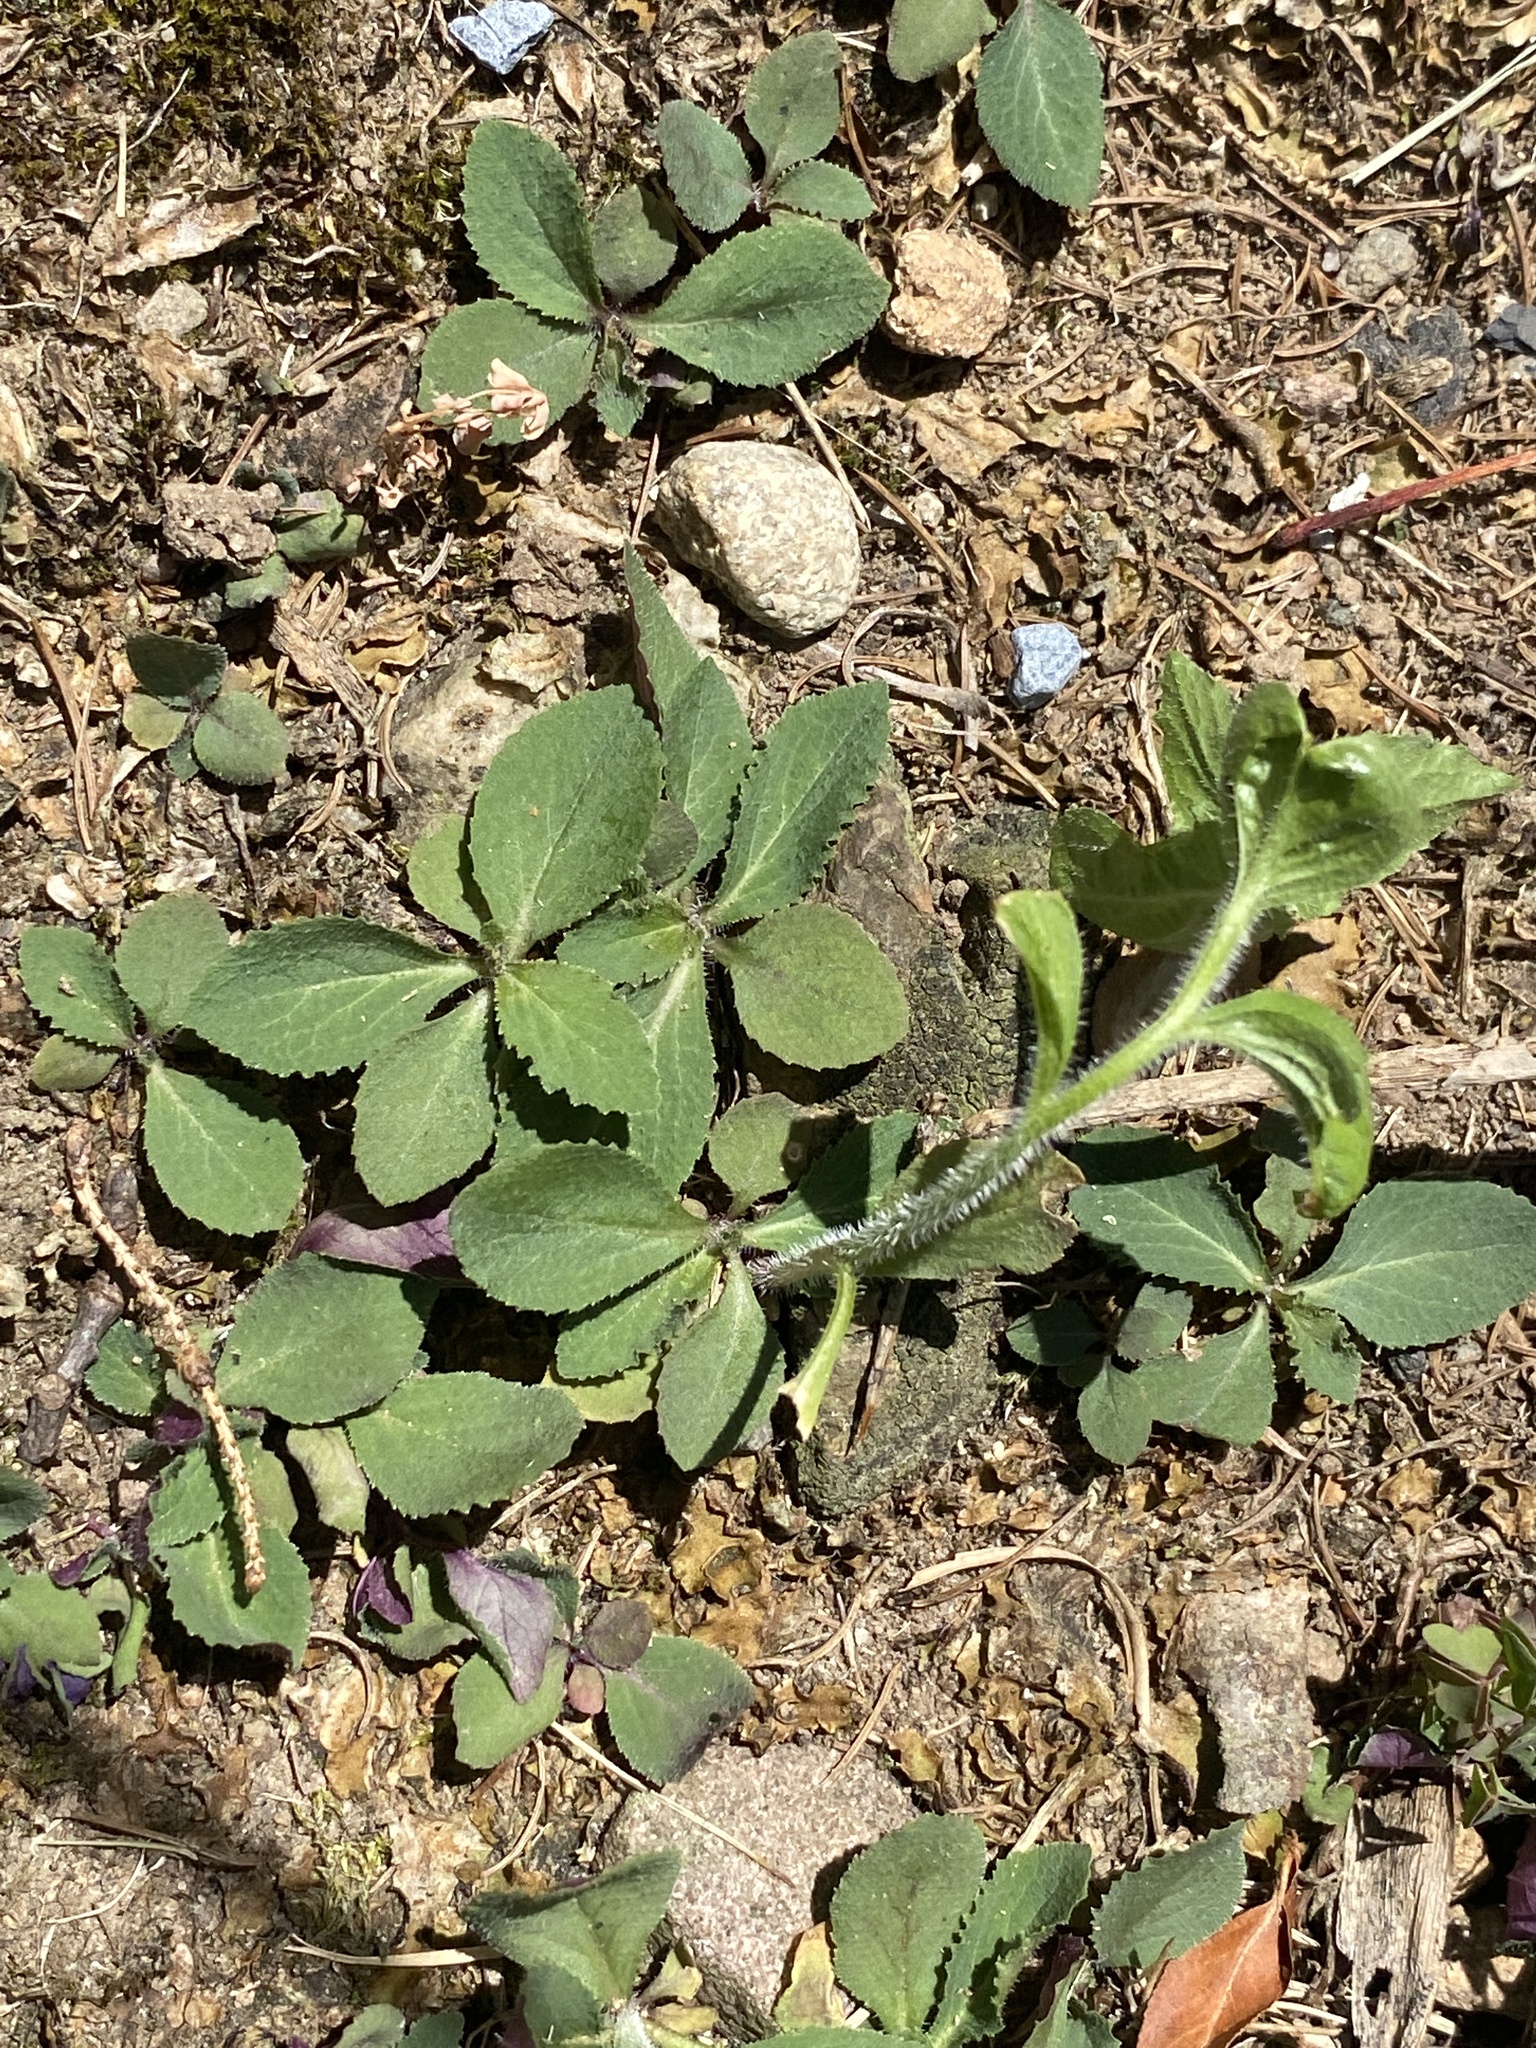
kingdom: Plantae
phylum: Tracheophyta
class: Magnoliopsida
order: Asterales
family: Campanulaceae
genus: Lobelia
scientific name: Lobelia inflata
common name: Indian tobacco
